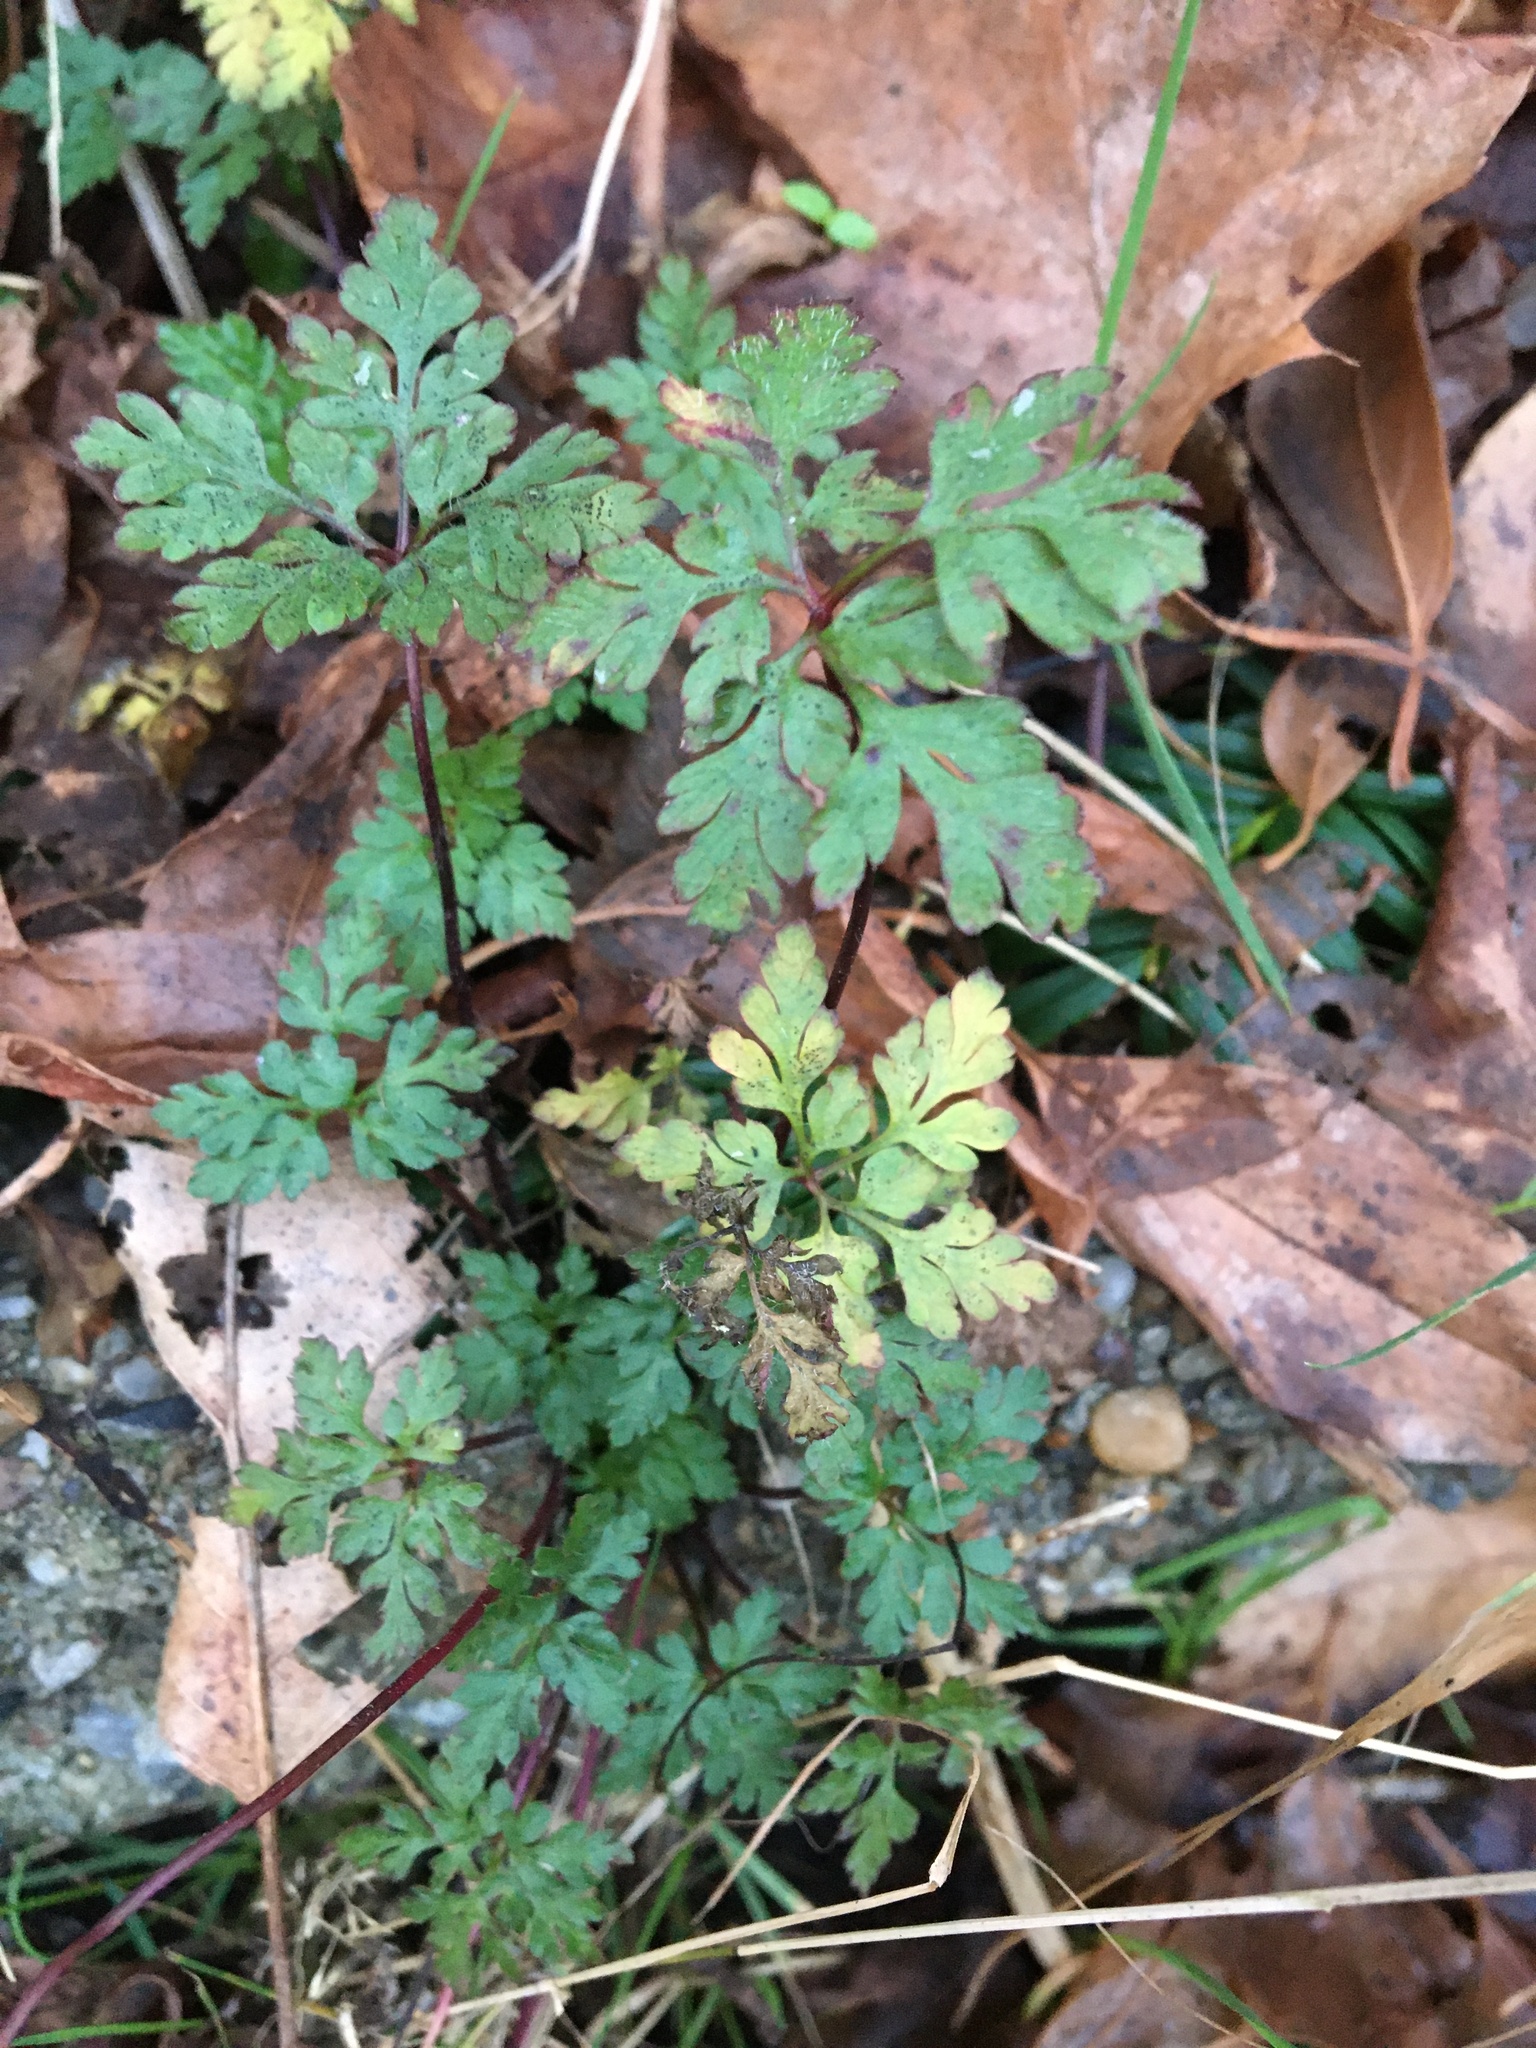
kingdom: Plantae
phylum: Tracheophyta
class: Magnoliopsida
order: Geraniales
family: Geraniaceae
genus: Geranium
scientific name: Geranium robertianum
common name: Herb-robert
